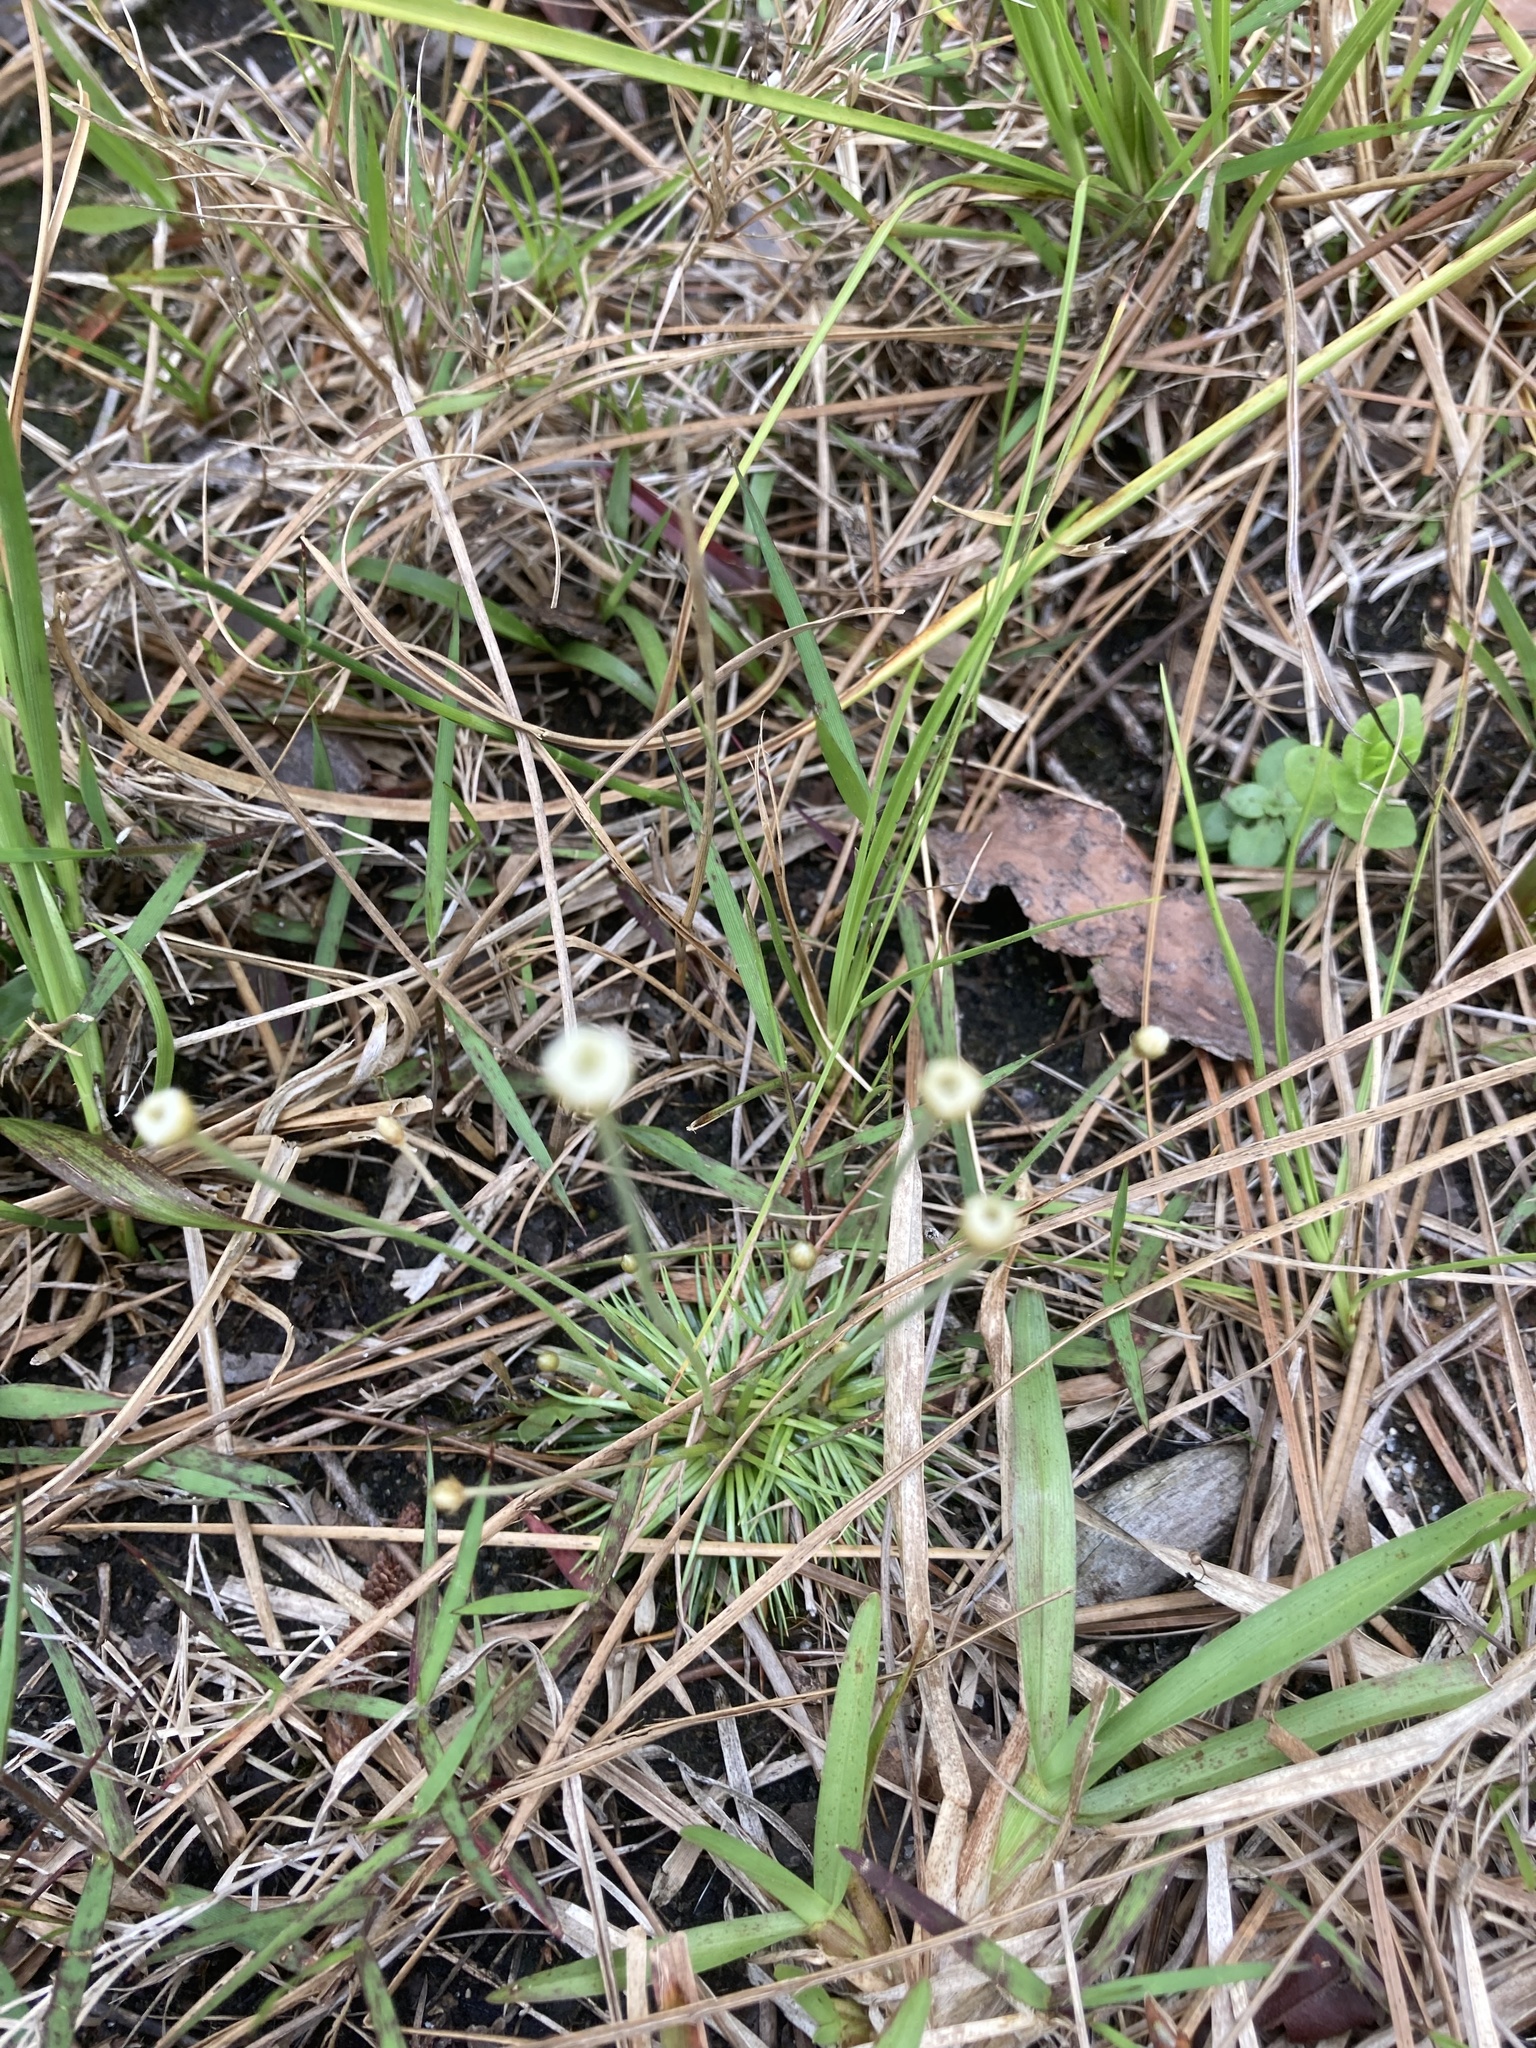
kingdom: Plantae
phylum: Tracheophyta
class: Liliopsida
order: Poales
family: Eriocaulaceae
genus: Syngonanthus
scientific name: Syngonanthus flavidulus
